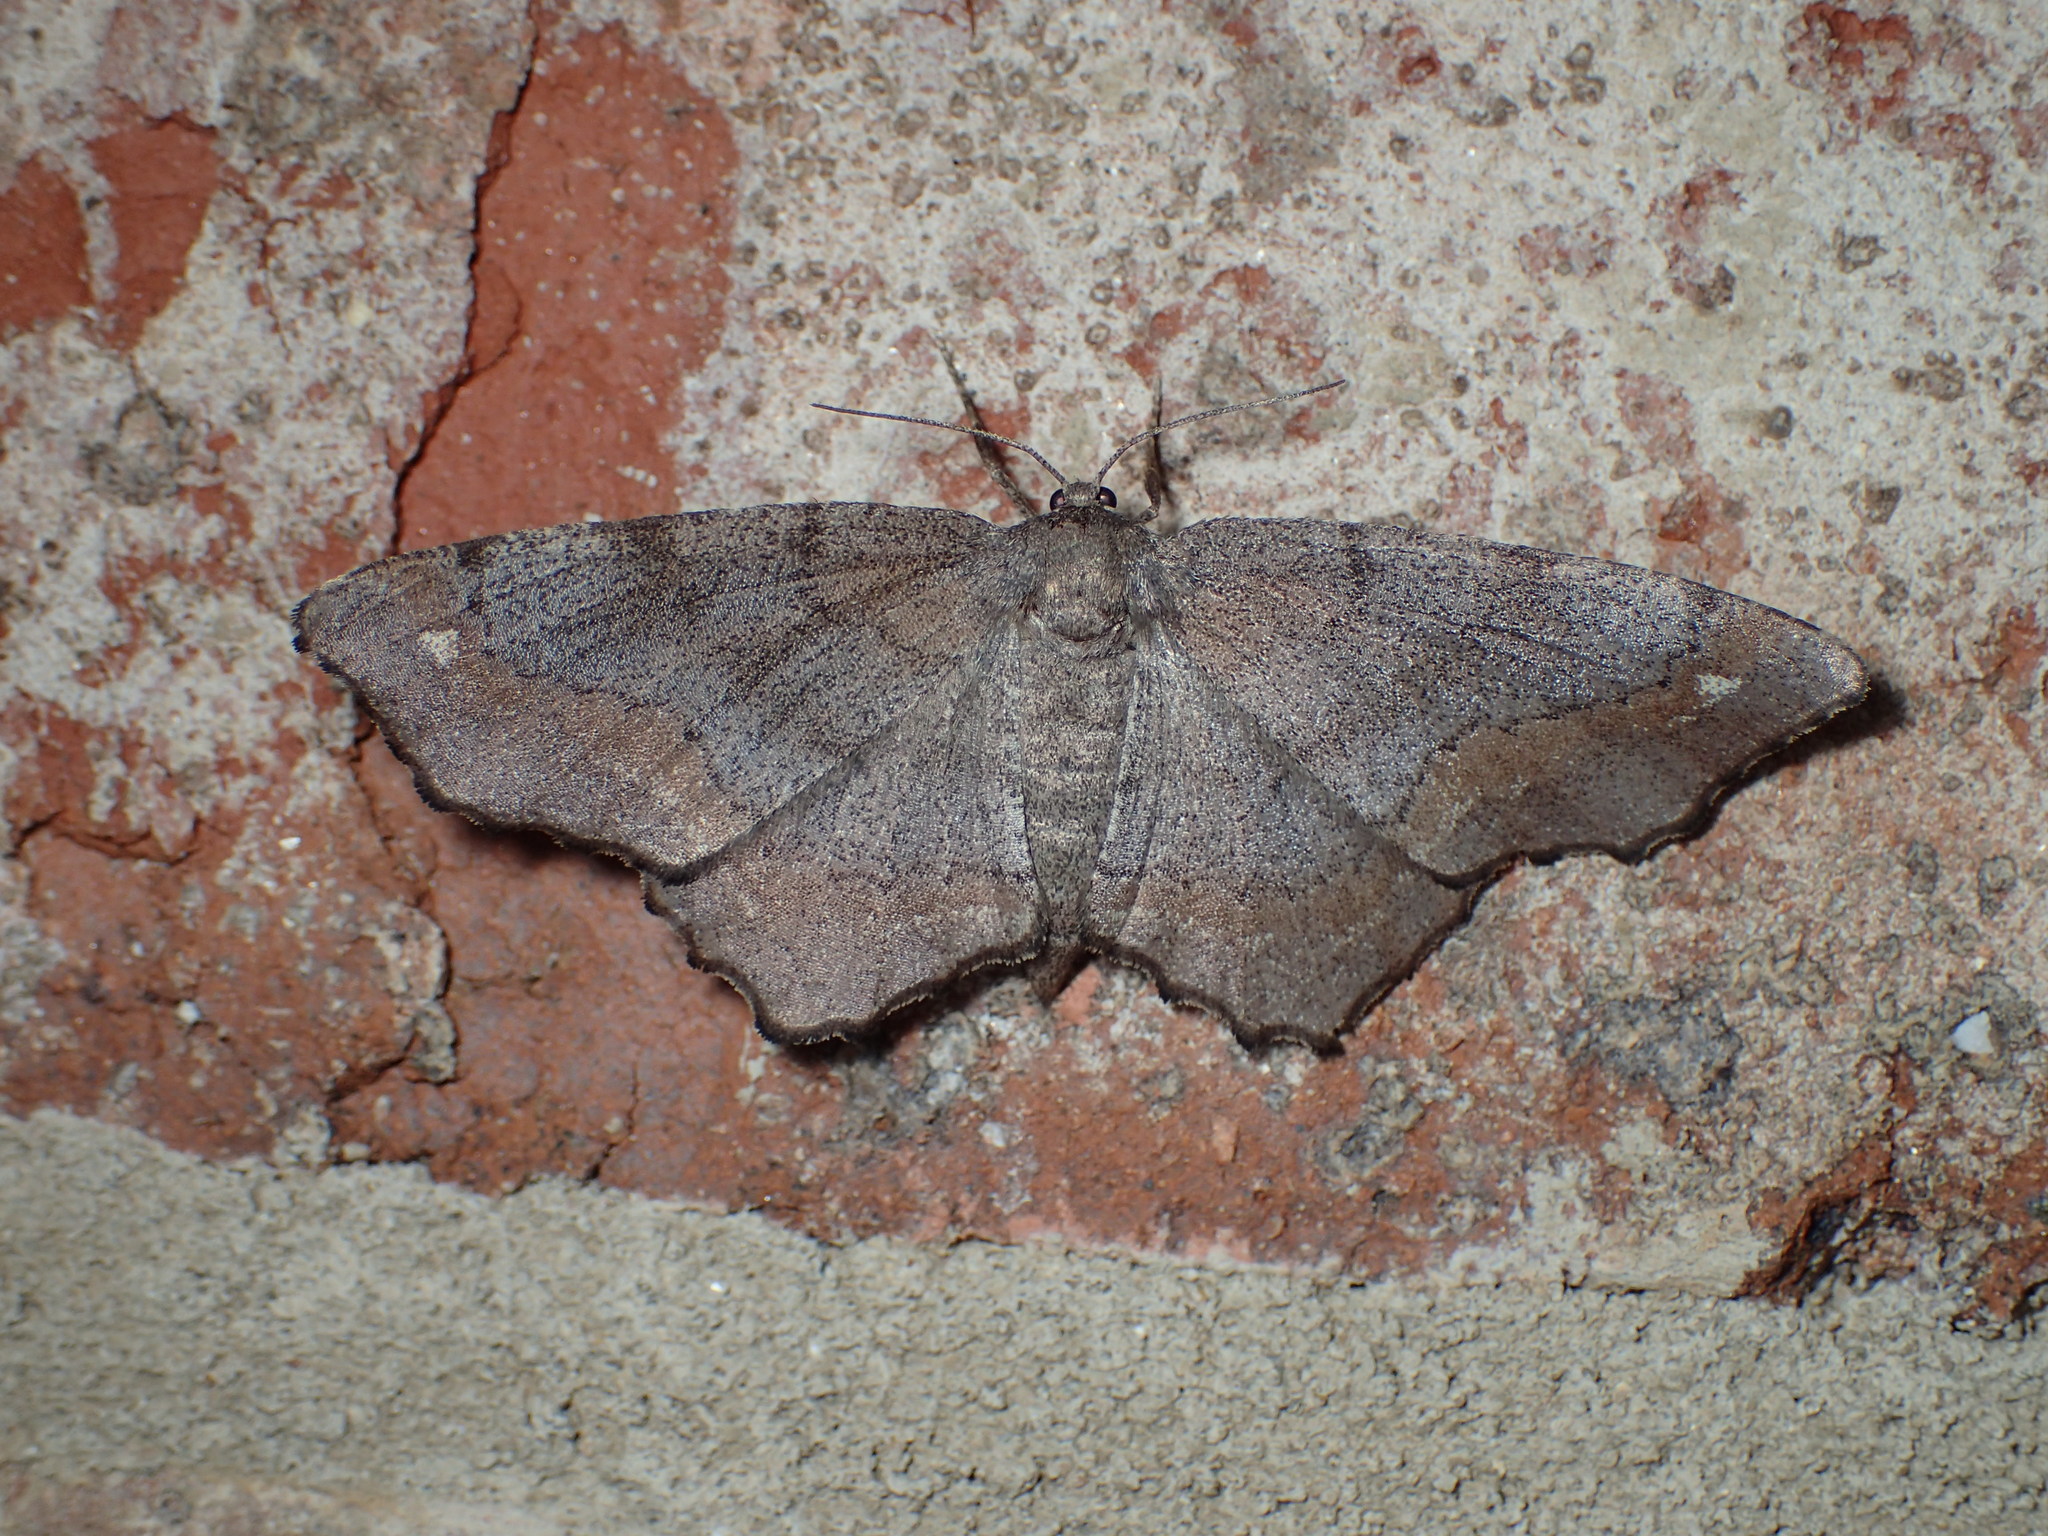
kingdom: Animalia
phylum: Arthropoda
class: Insecta
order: Lepidoptera
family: Geometridae
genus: Hypagyrtis
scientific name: Hypagyrtis unipunctata
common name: One-spotted variant
